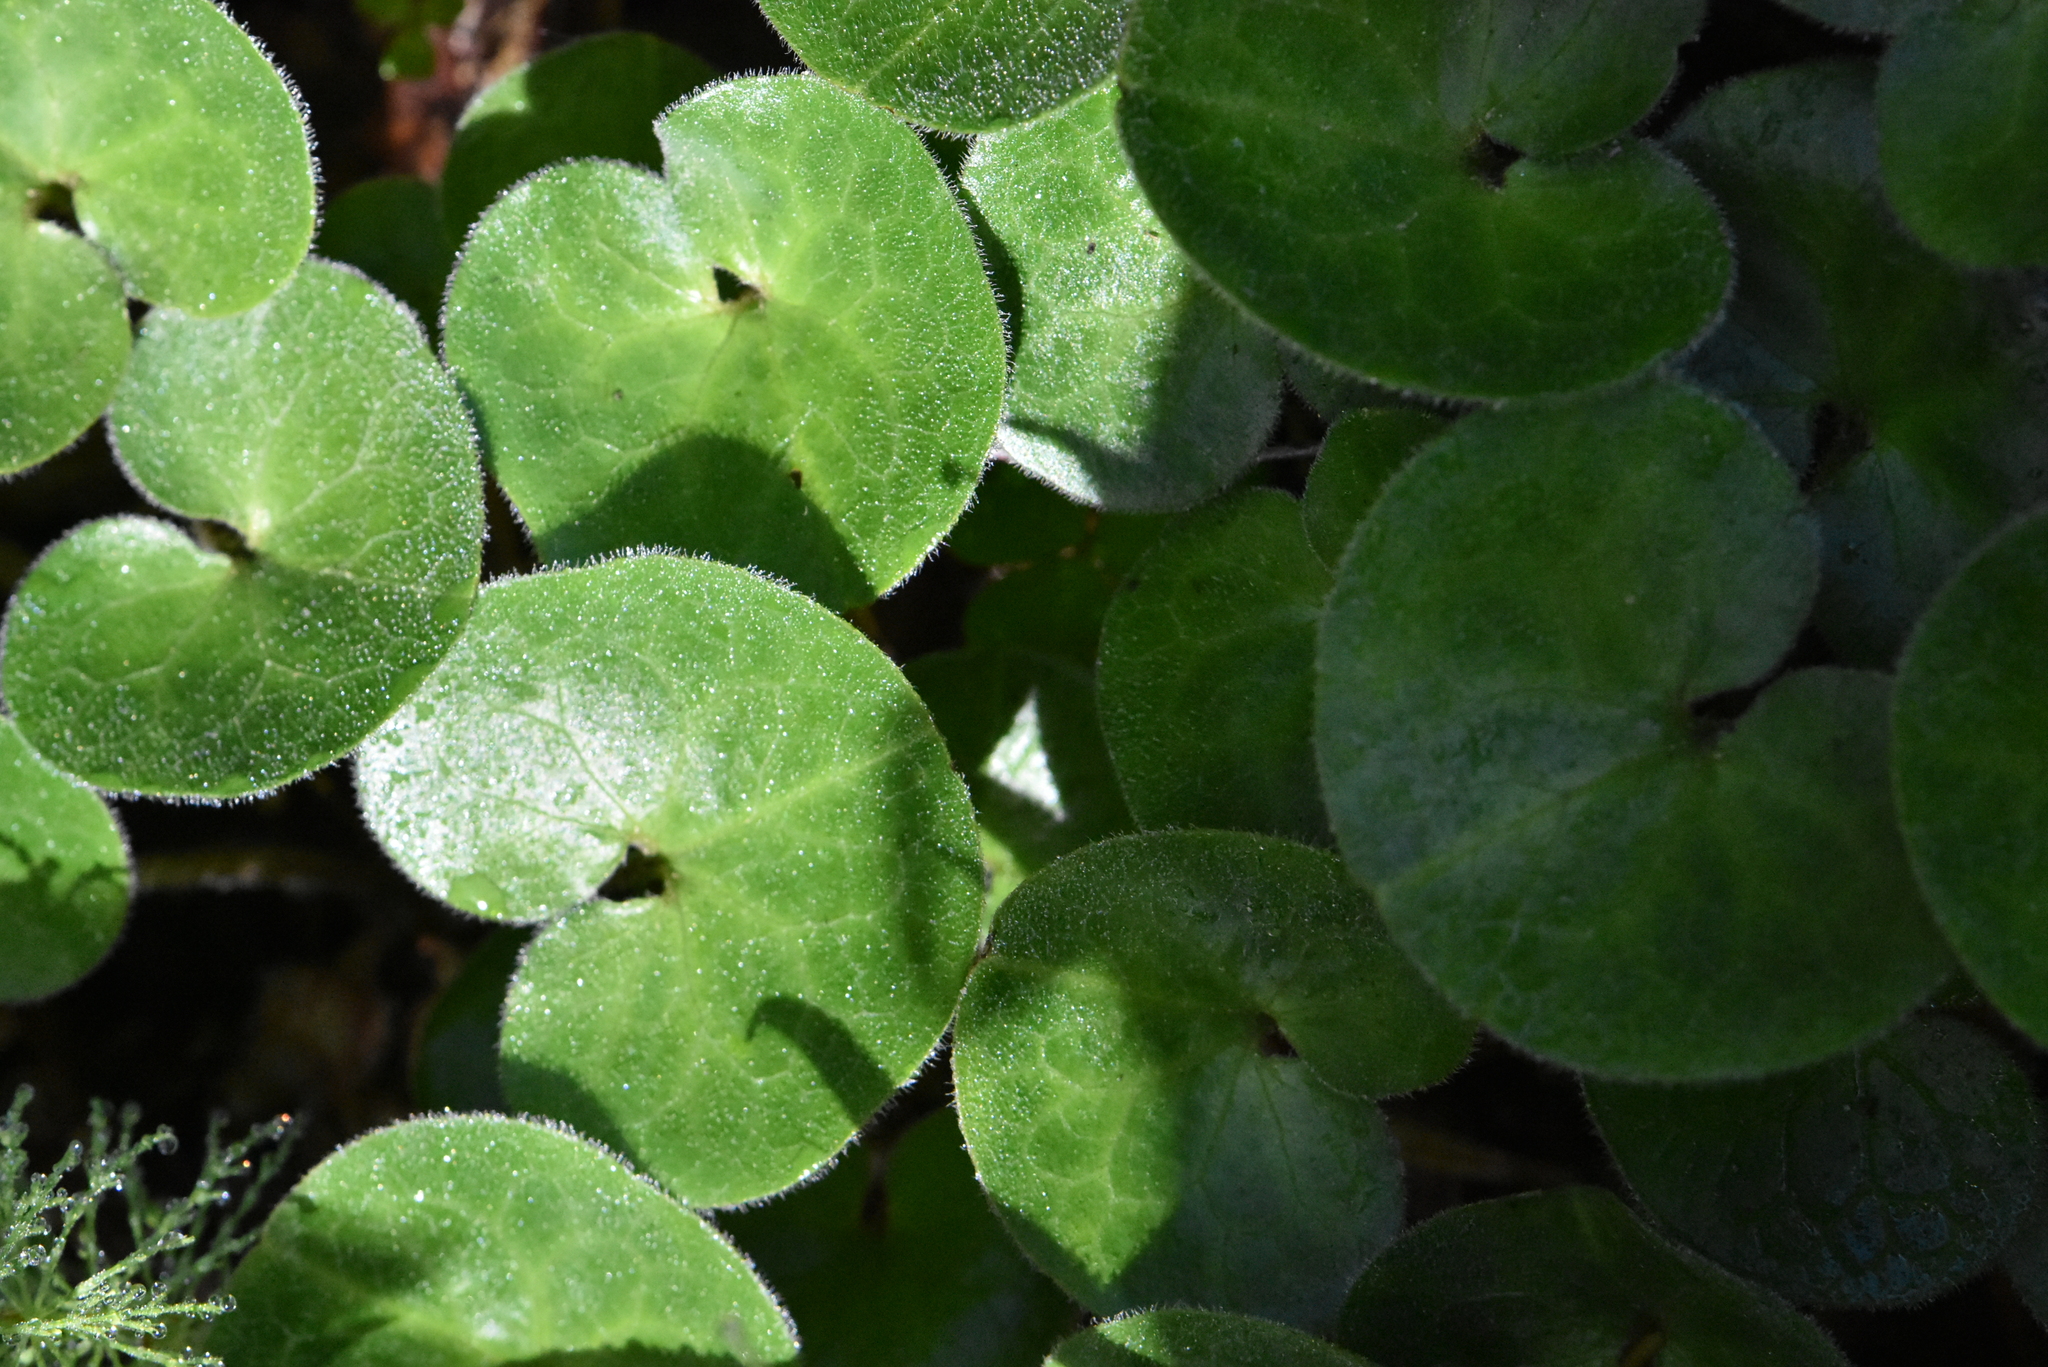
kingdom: Plantae
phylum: Tracheophyta
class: Magnoliopsida
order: Piperales
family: Aristolochiaceae
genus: Asarum
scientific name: Asarum europaeum
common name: Asarabacca
